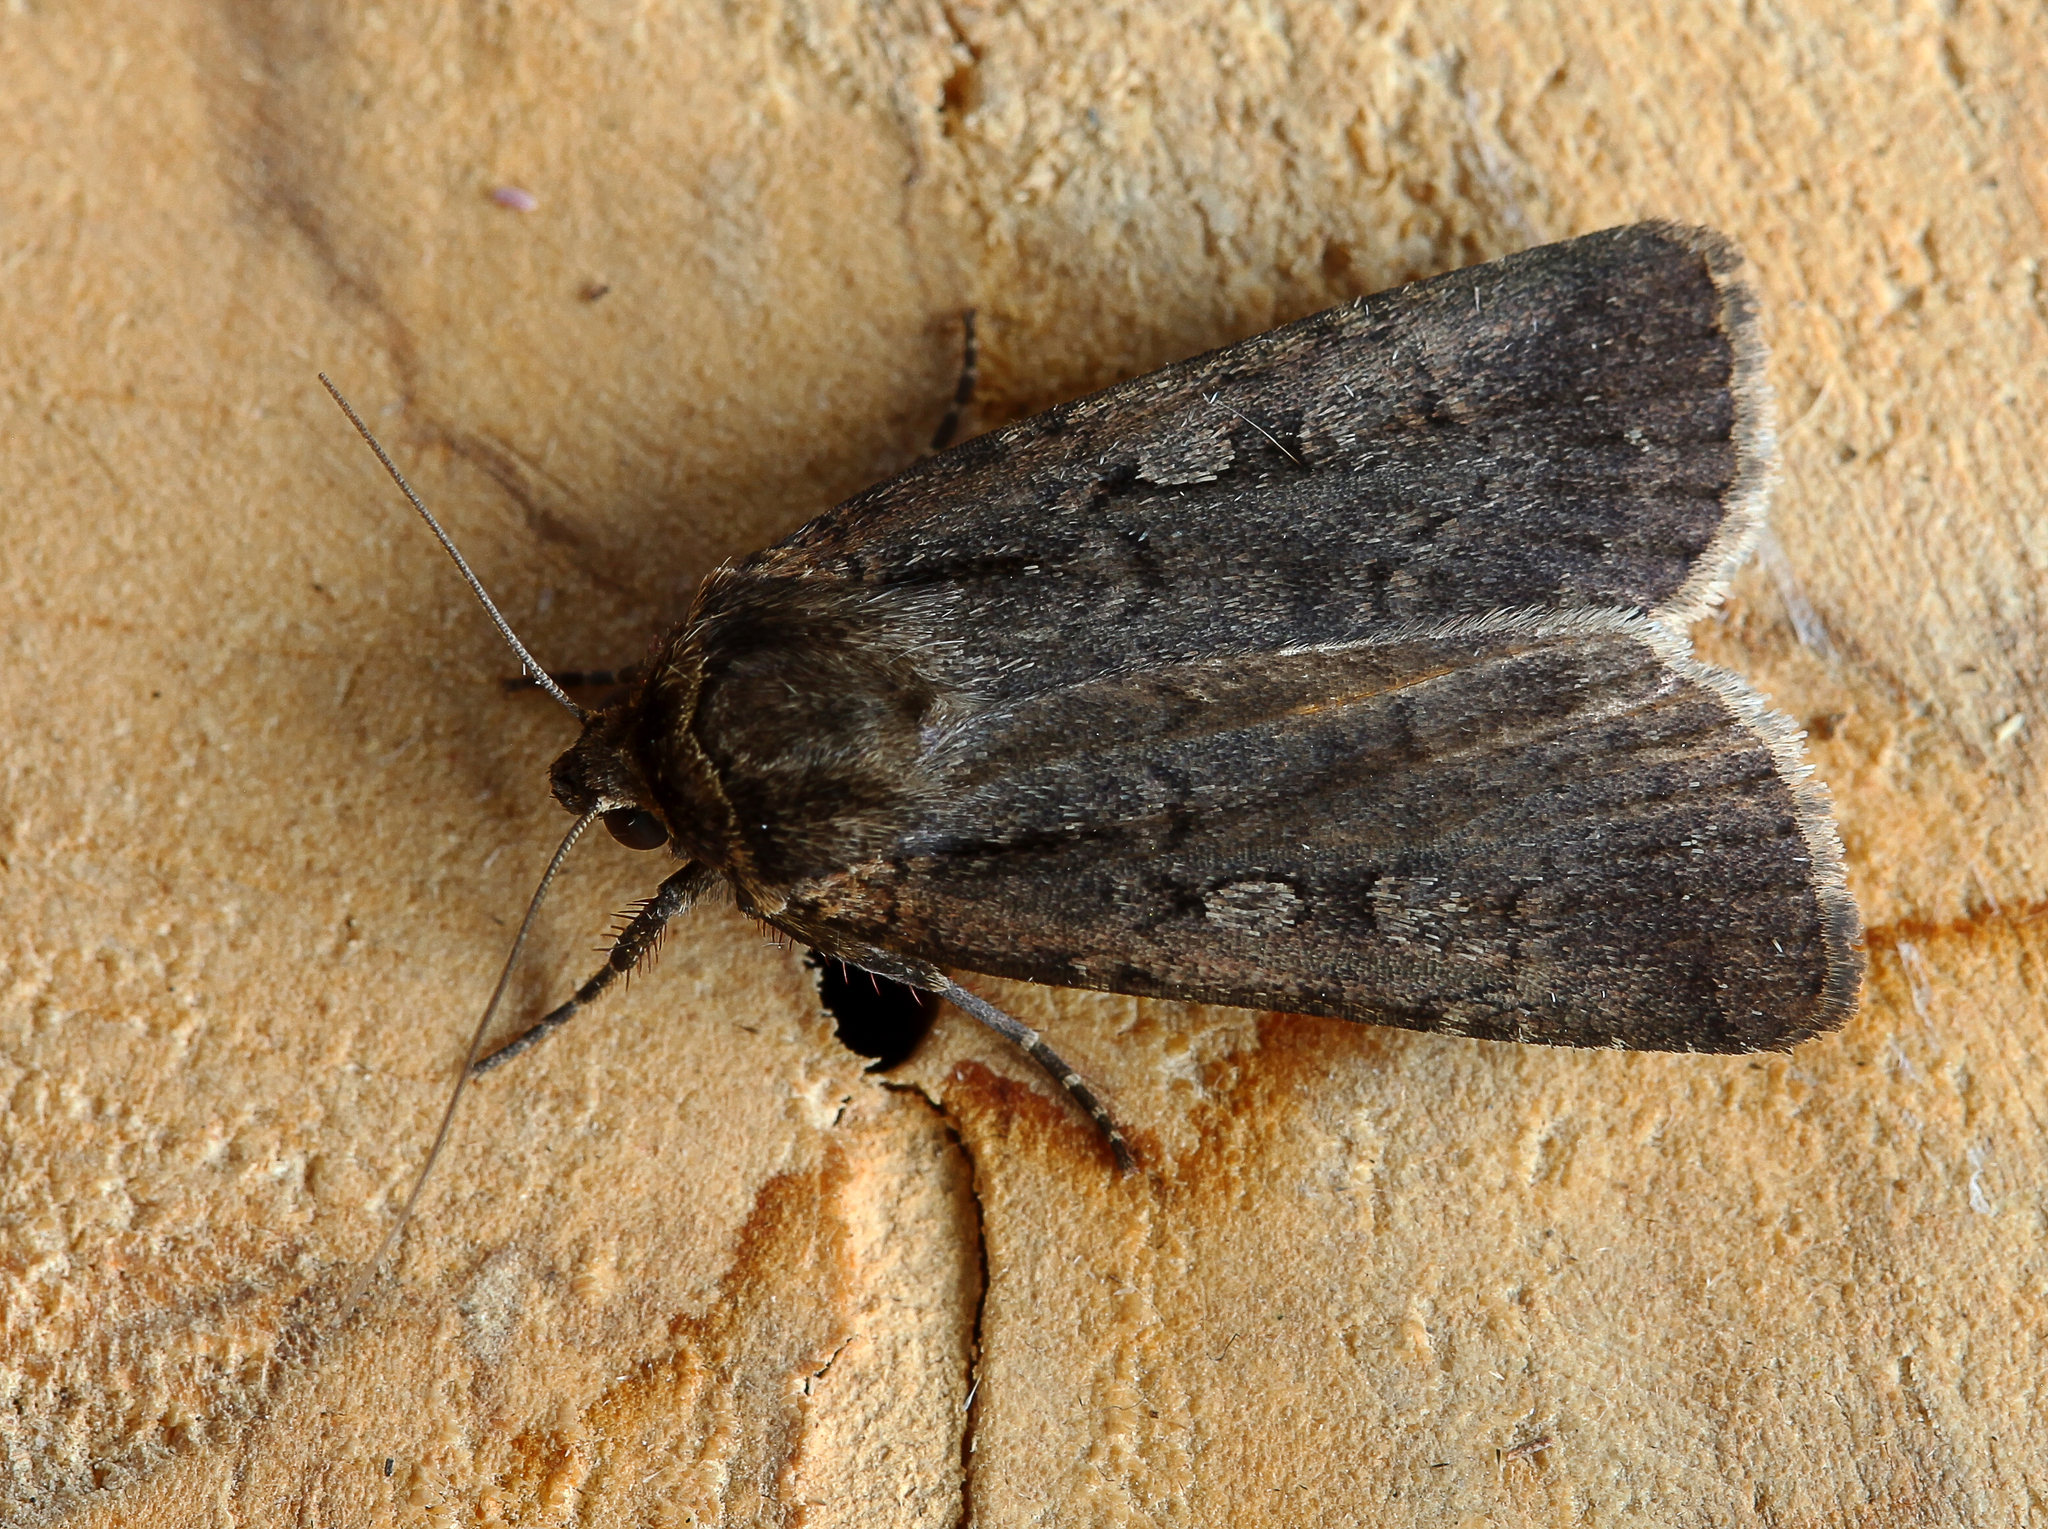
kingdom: Animalia
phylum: Arthropoda
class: Insecta
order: Lepidoptera
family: Noctuidae
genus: Spaelotis
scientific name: Spaelotis ravida
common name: Stout dart
